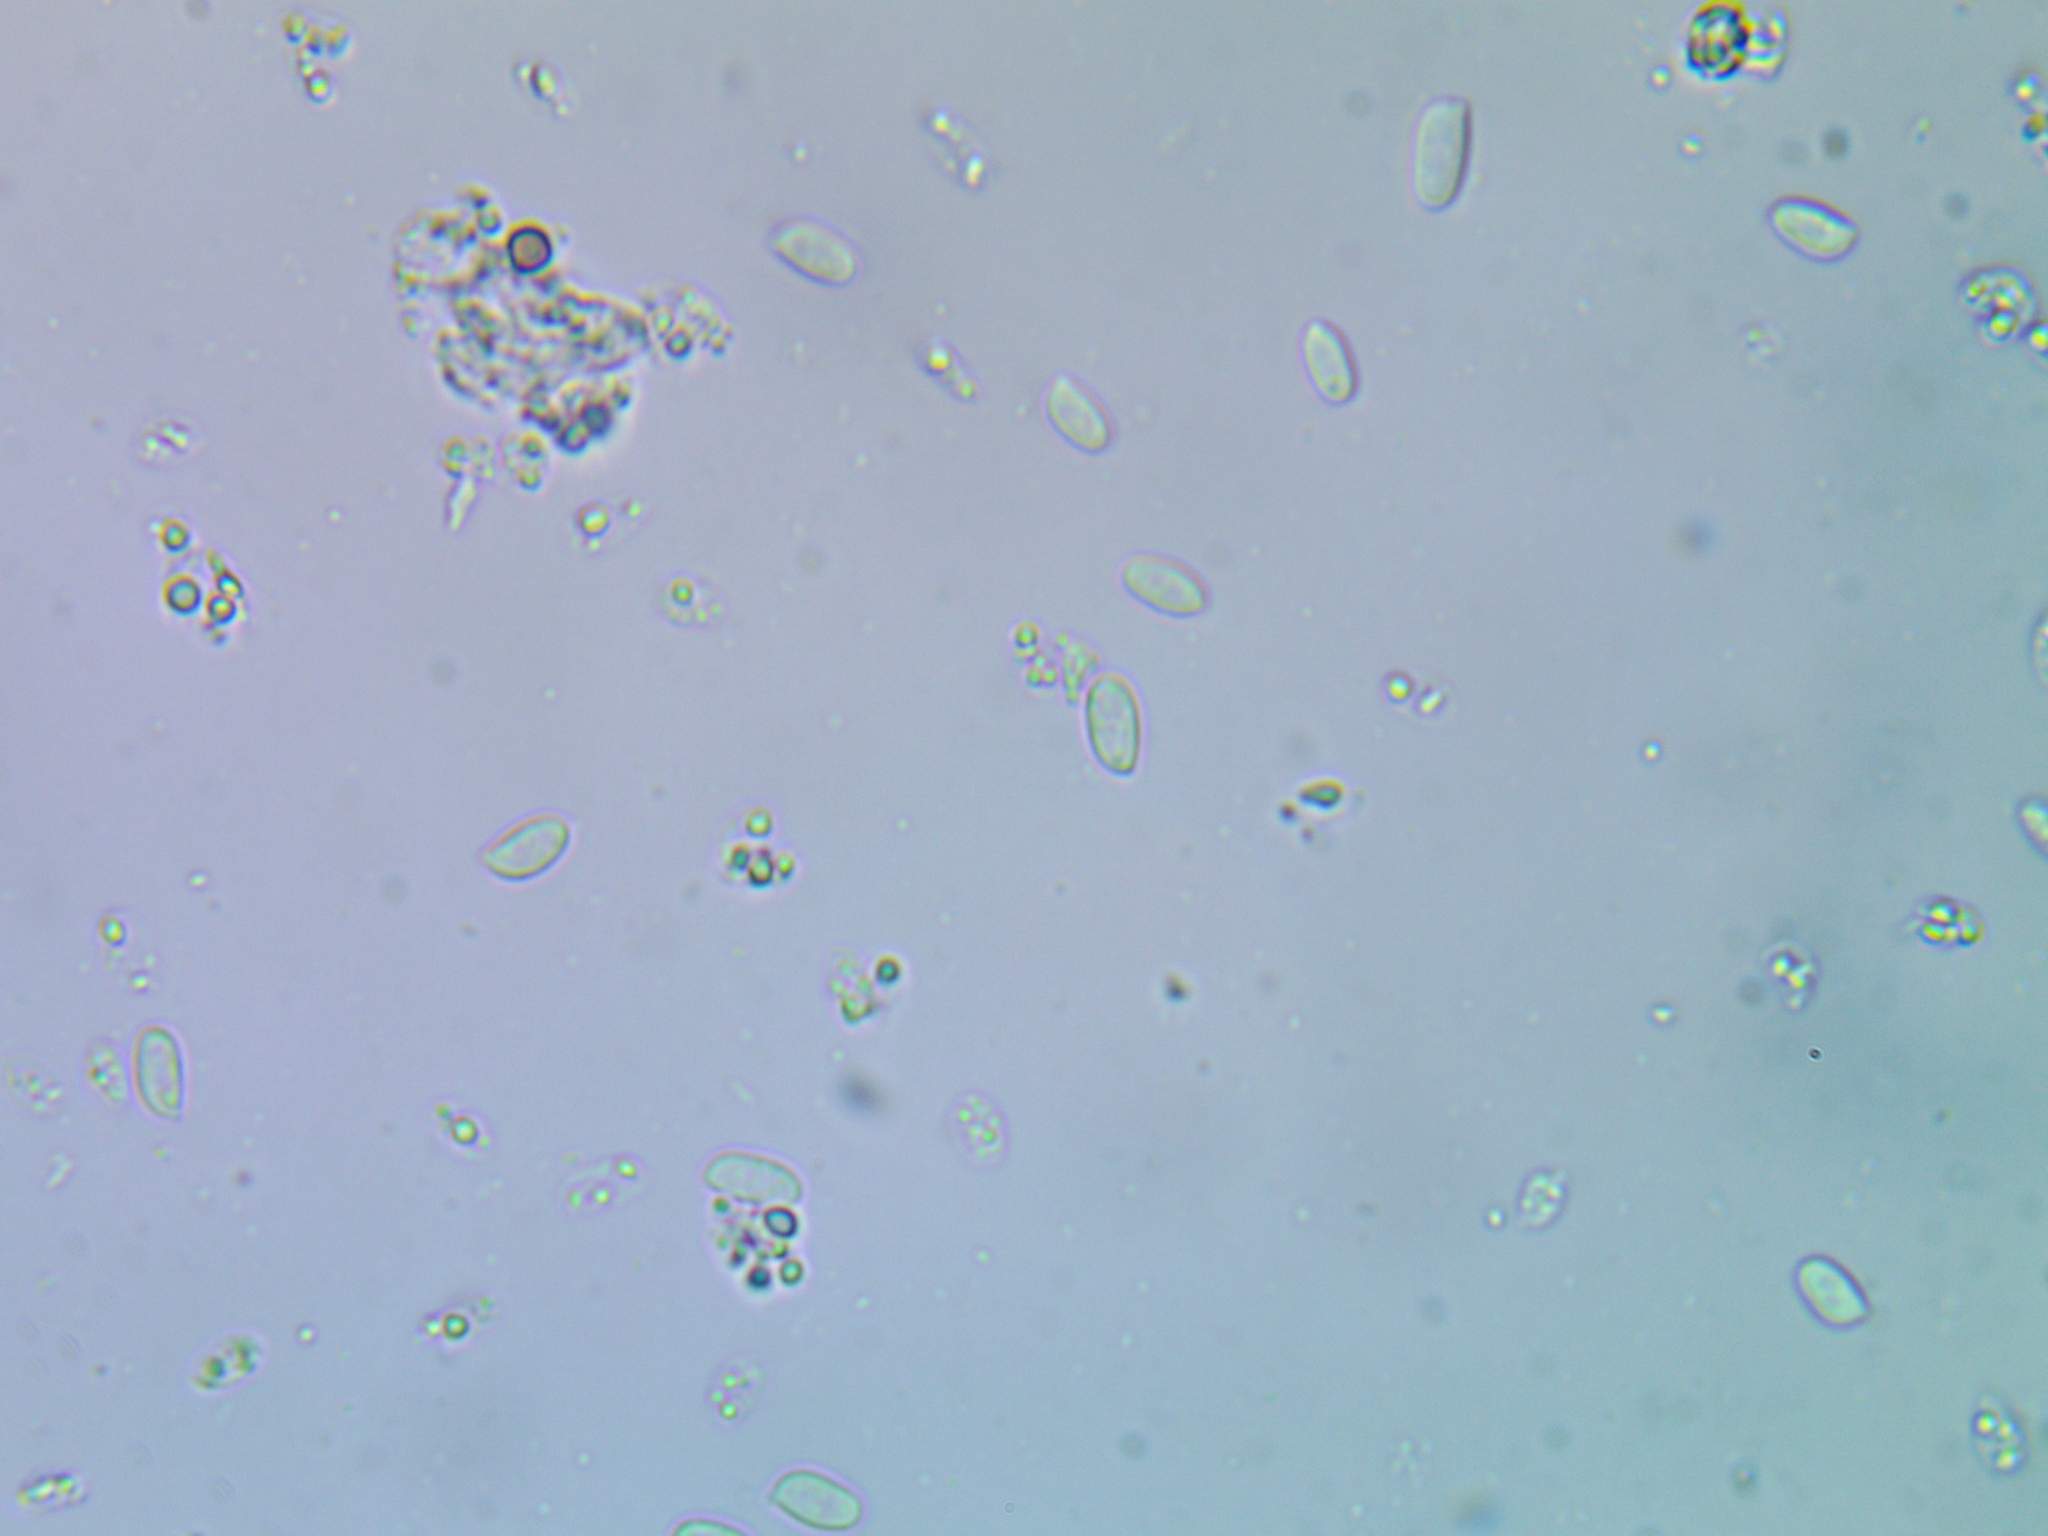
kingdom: Fungi
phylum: Basidiomycota
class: Agaricomycetes
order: Agaricales
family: Physalacriaceae
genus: Flammulina
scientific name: Flammulina velutipes
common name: Velvet shank
